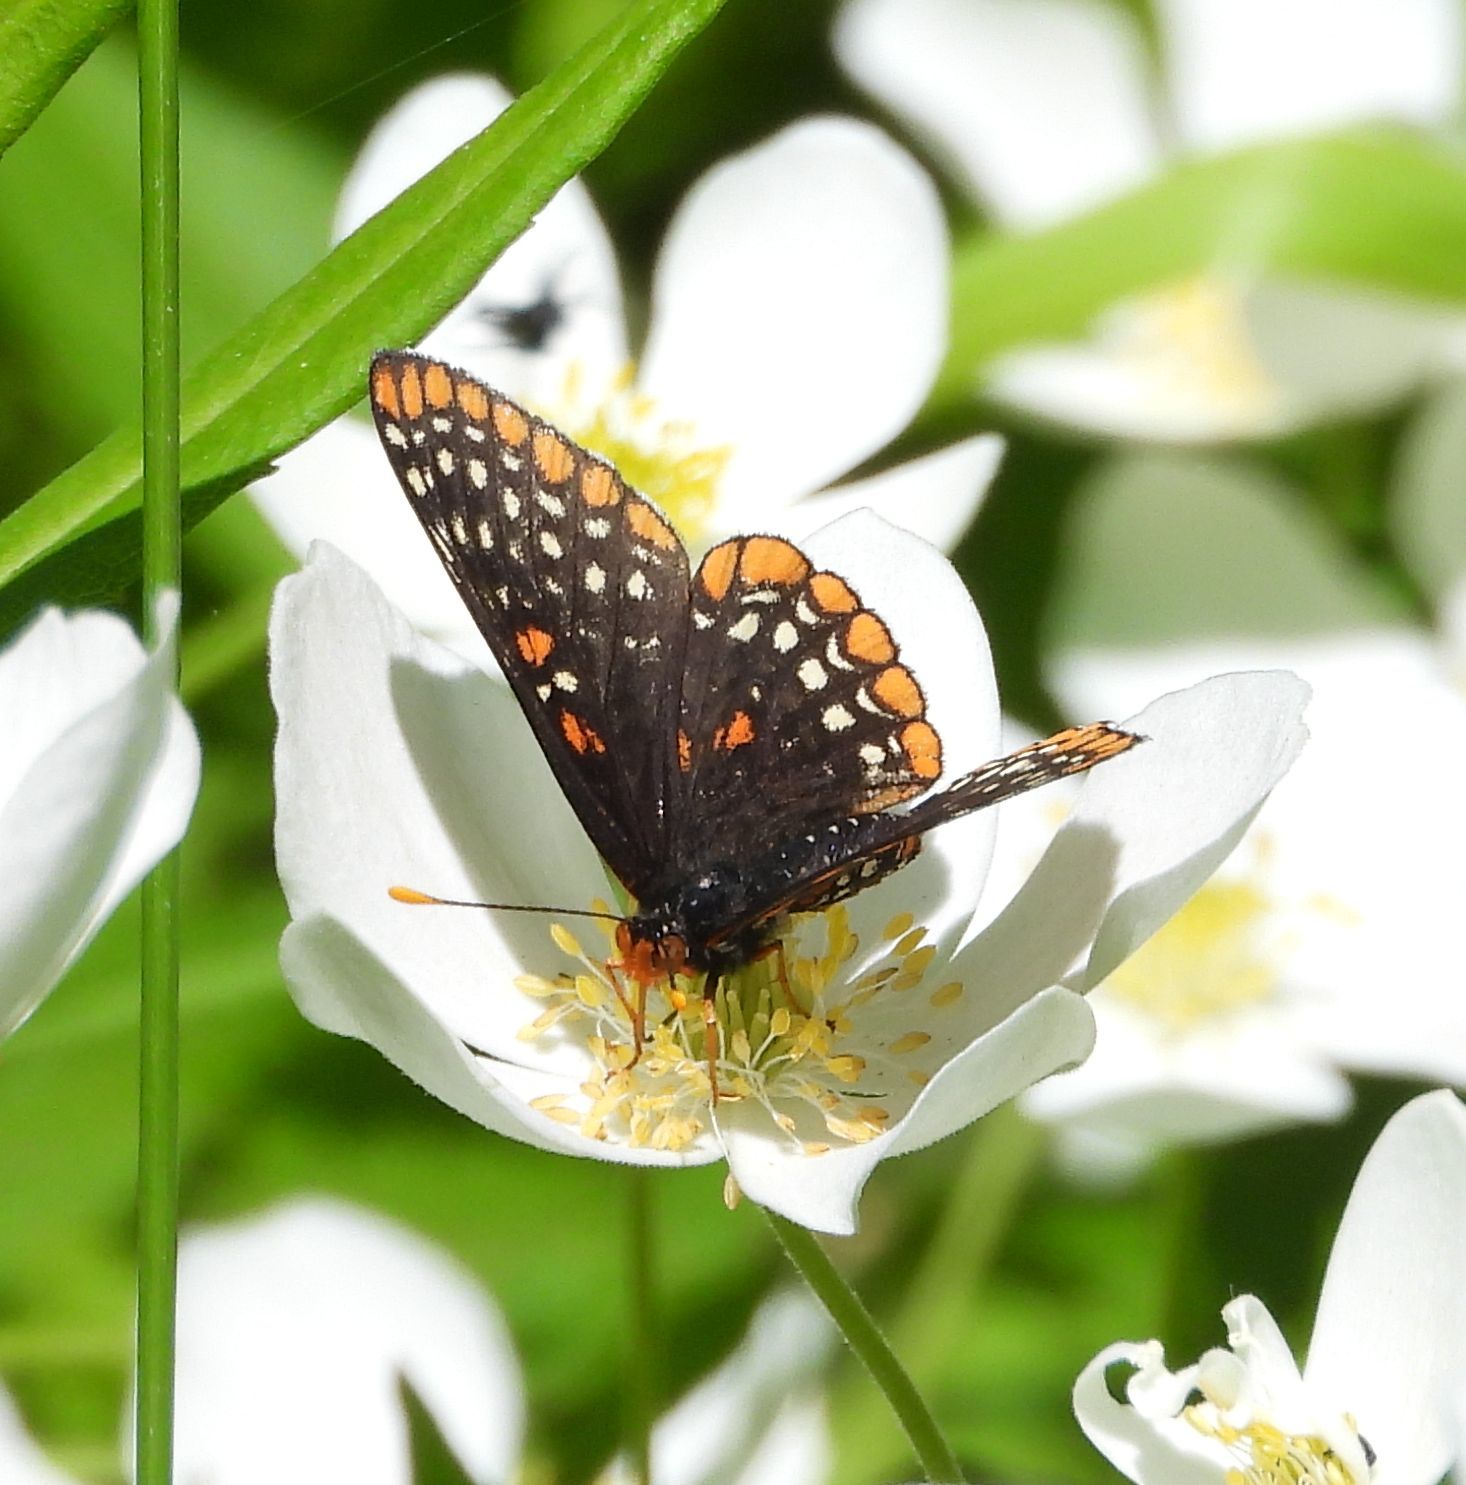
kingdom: Animalia
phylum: Arthropoda
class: Insecta
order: Lepidoptera
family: Nymphalidae
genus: Euphydryas
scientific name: Euphydryas phaeton
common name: Baltimore checkerspot
